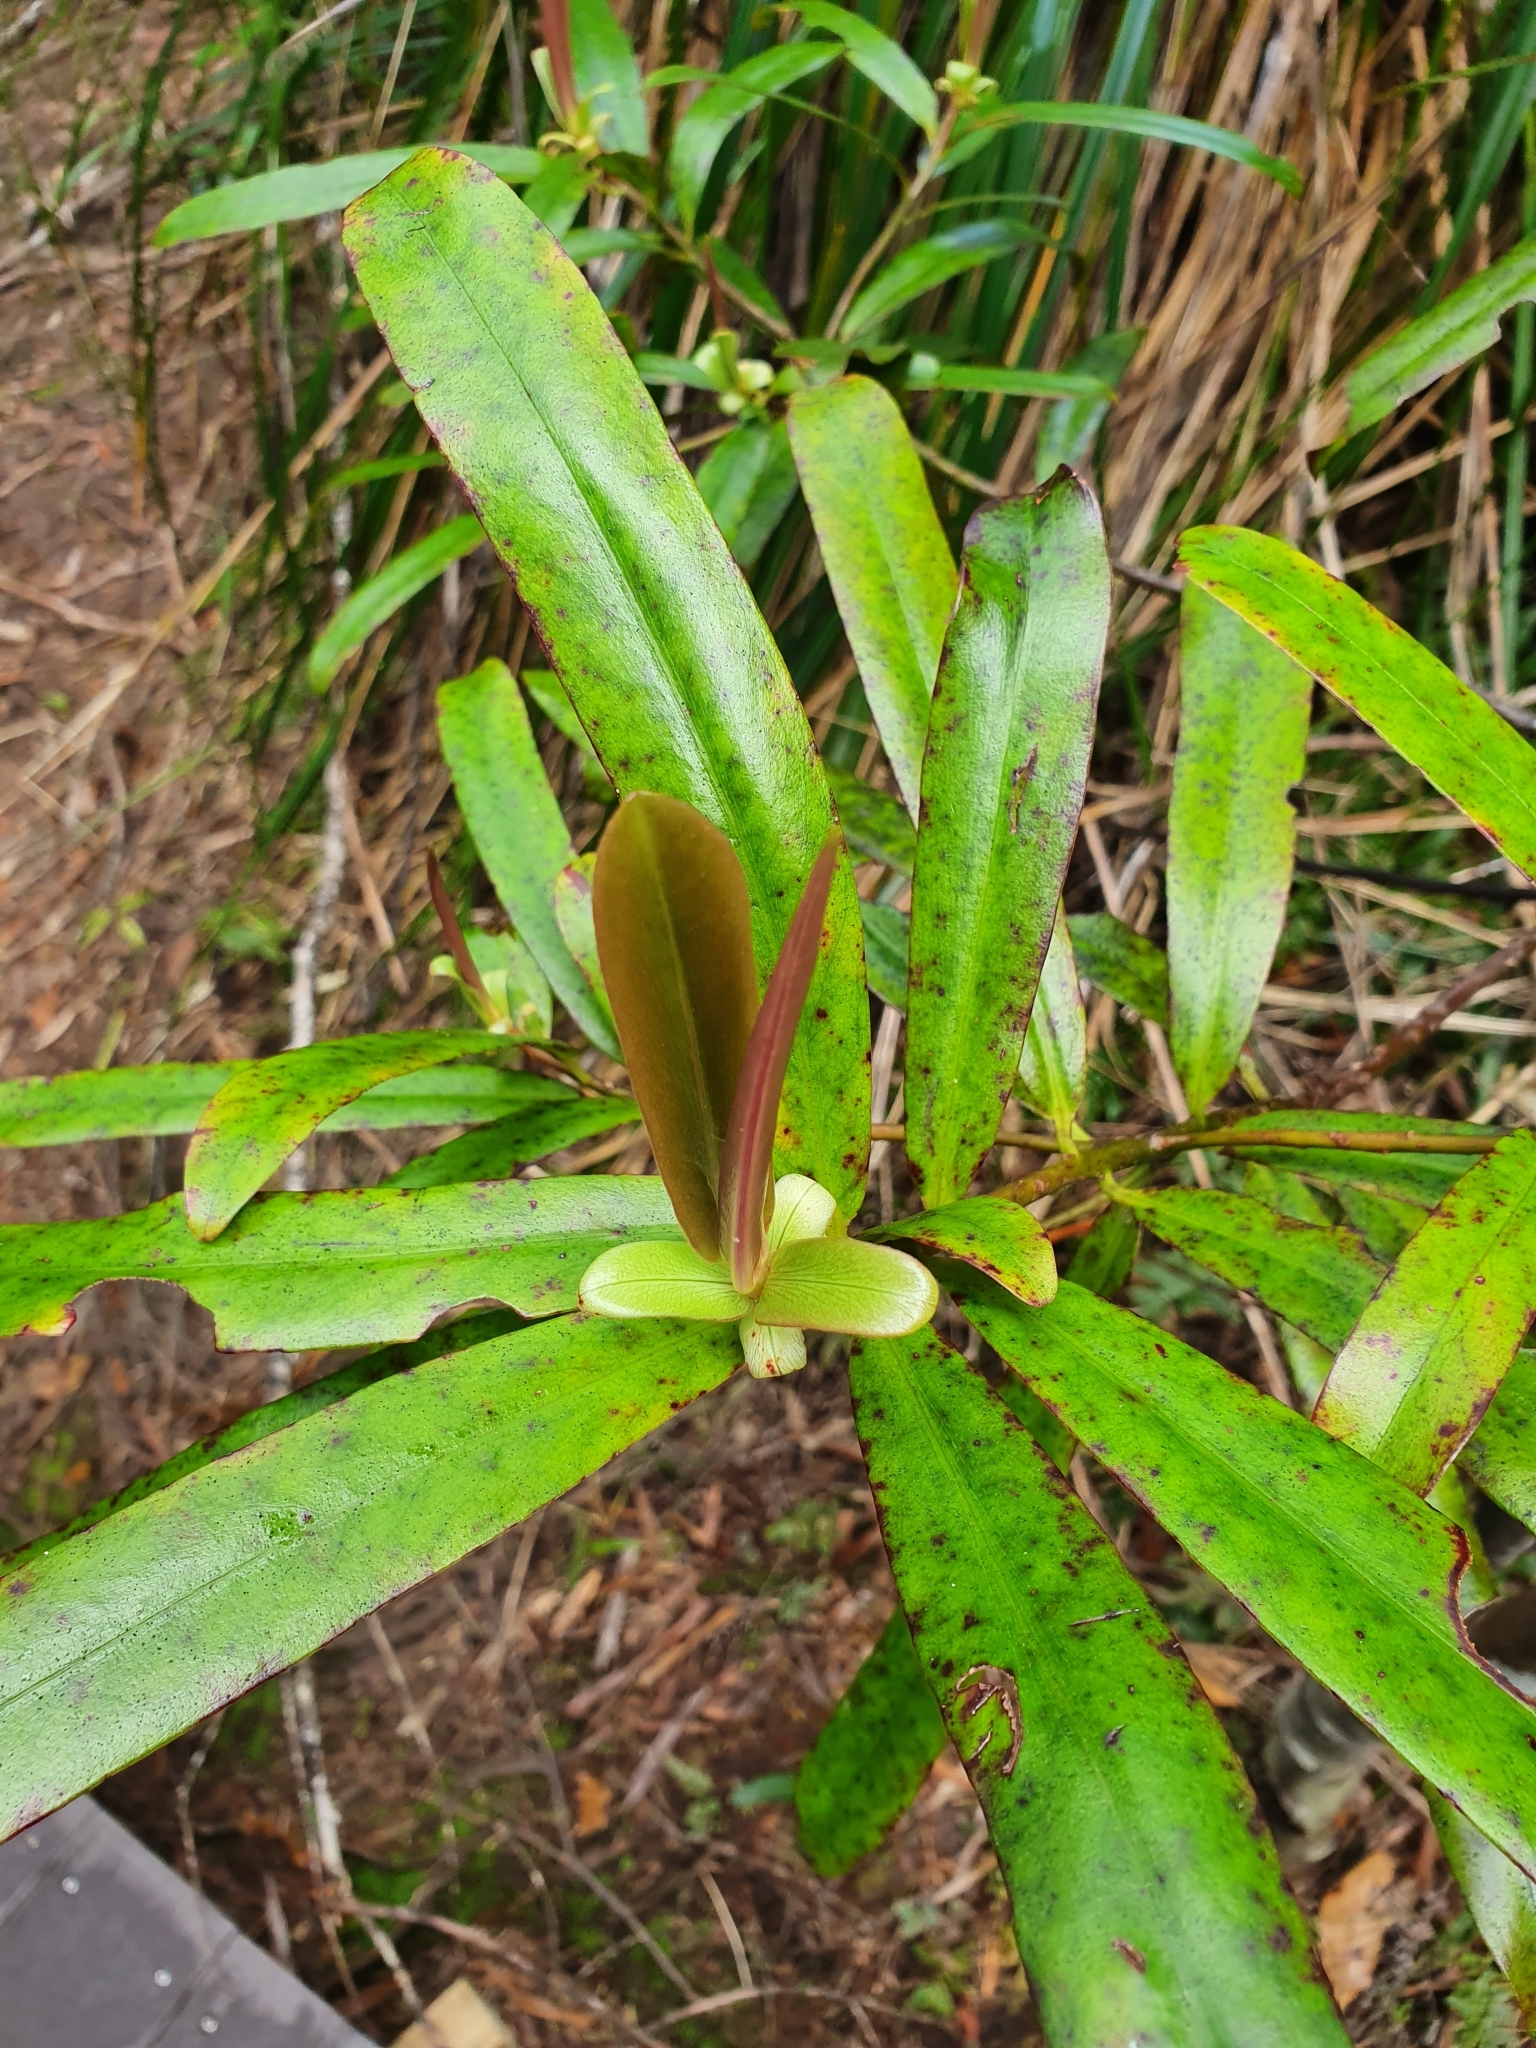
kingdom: Plantae
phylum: Tracheophyta
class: Magnoliopsida
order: Ericales
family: Primulaceae
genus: Myrsine
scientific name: Myrsine salicina
